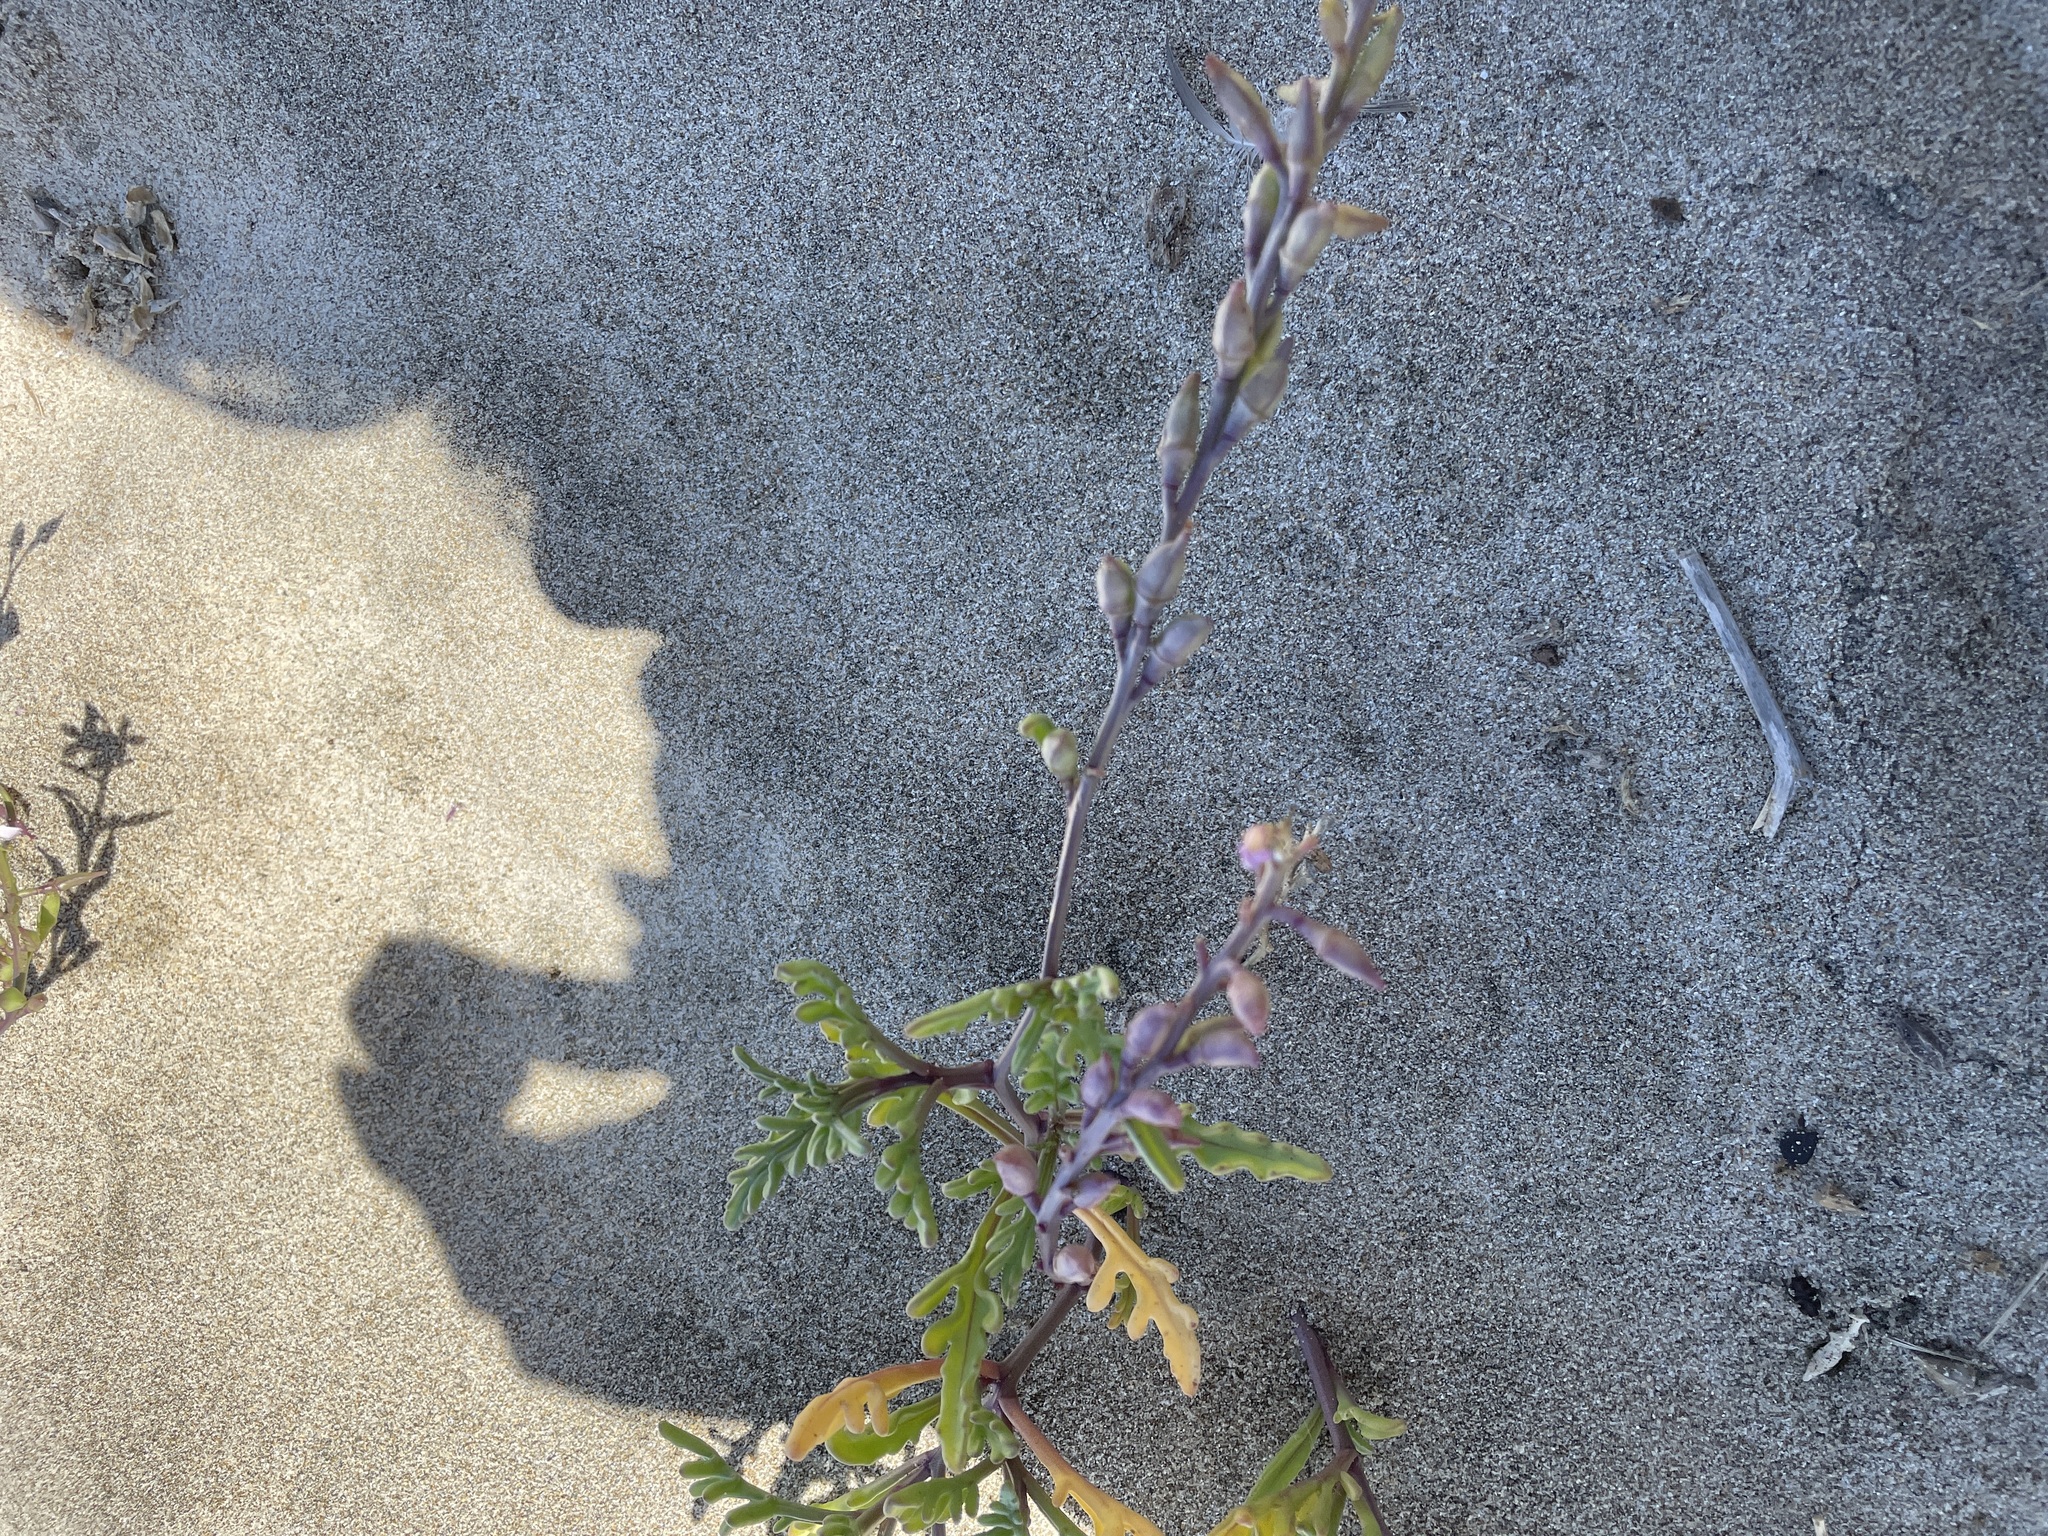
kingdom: Plantae
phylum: Tracheophyta
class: Magnoliopsida
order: Brassicales
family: Brassicaceae
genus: Cakile
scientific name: Cakile maritima
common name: Sea rocket
